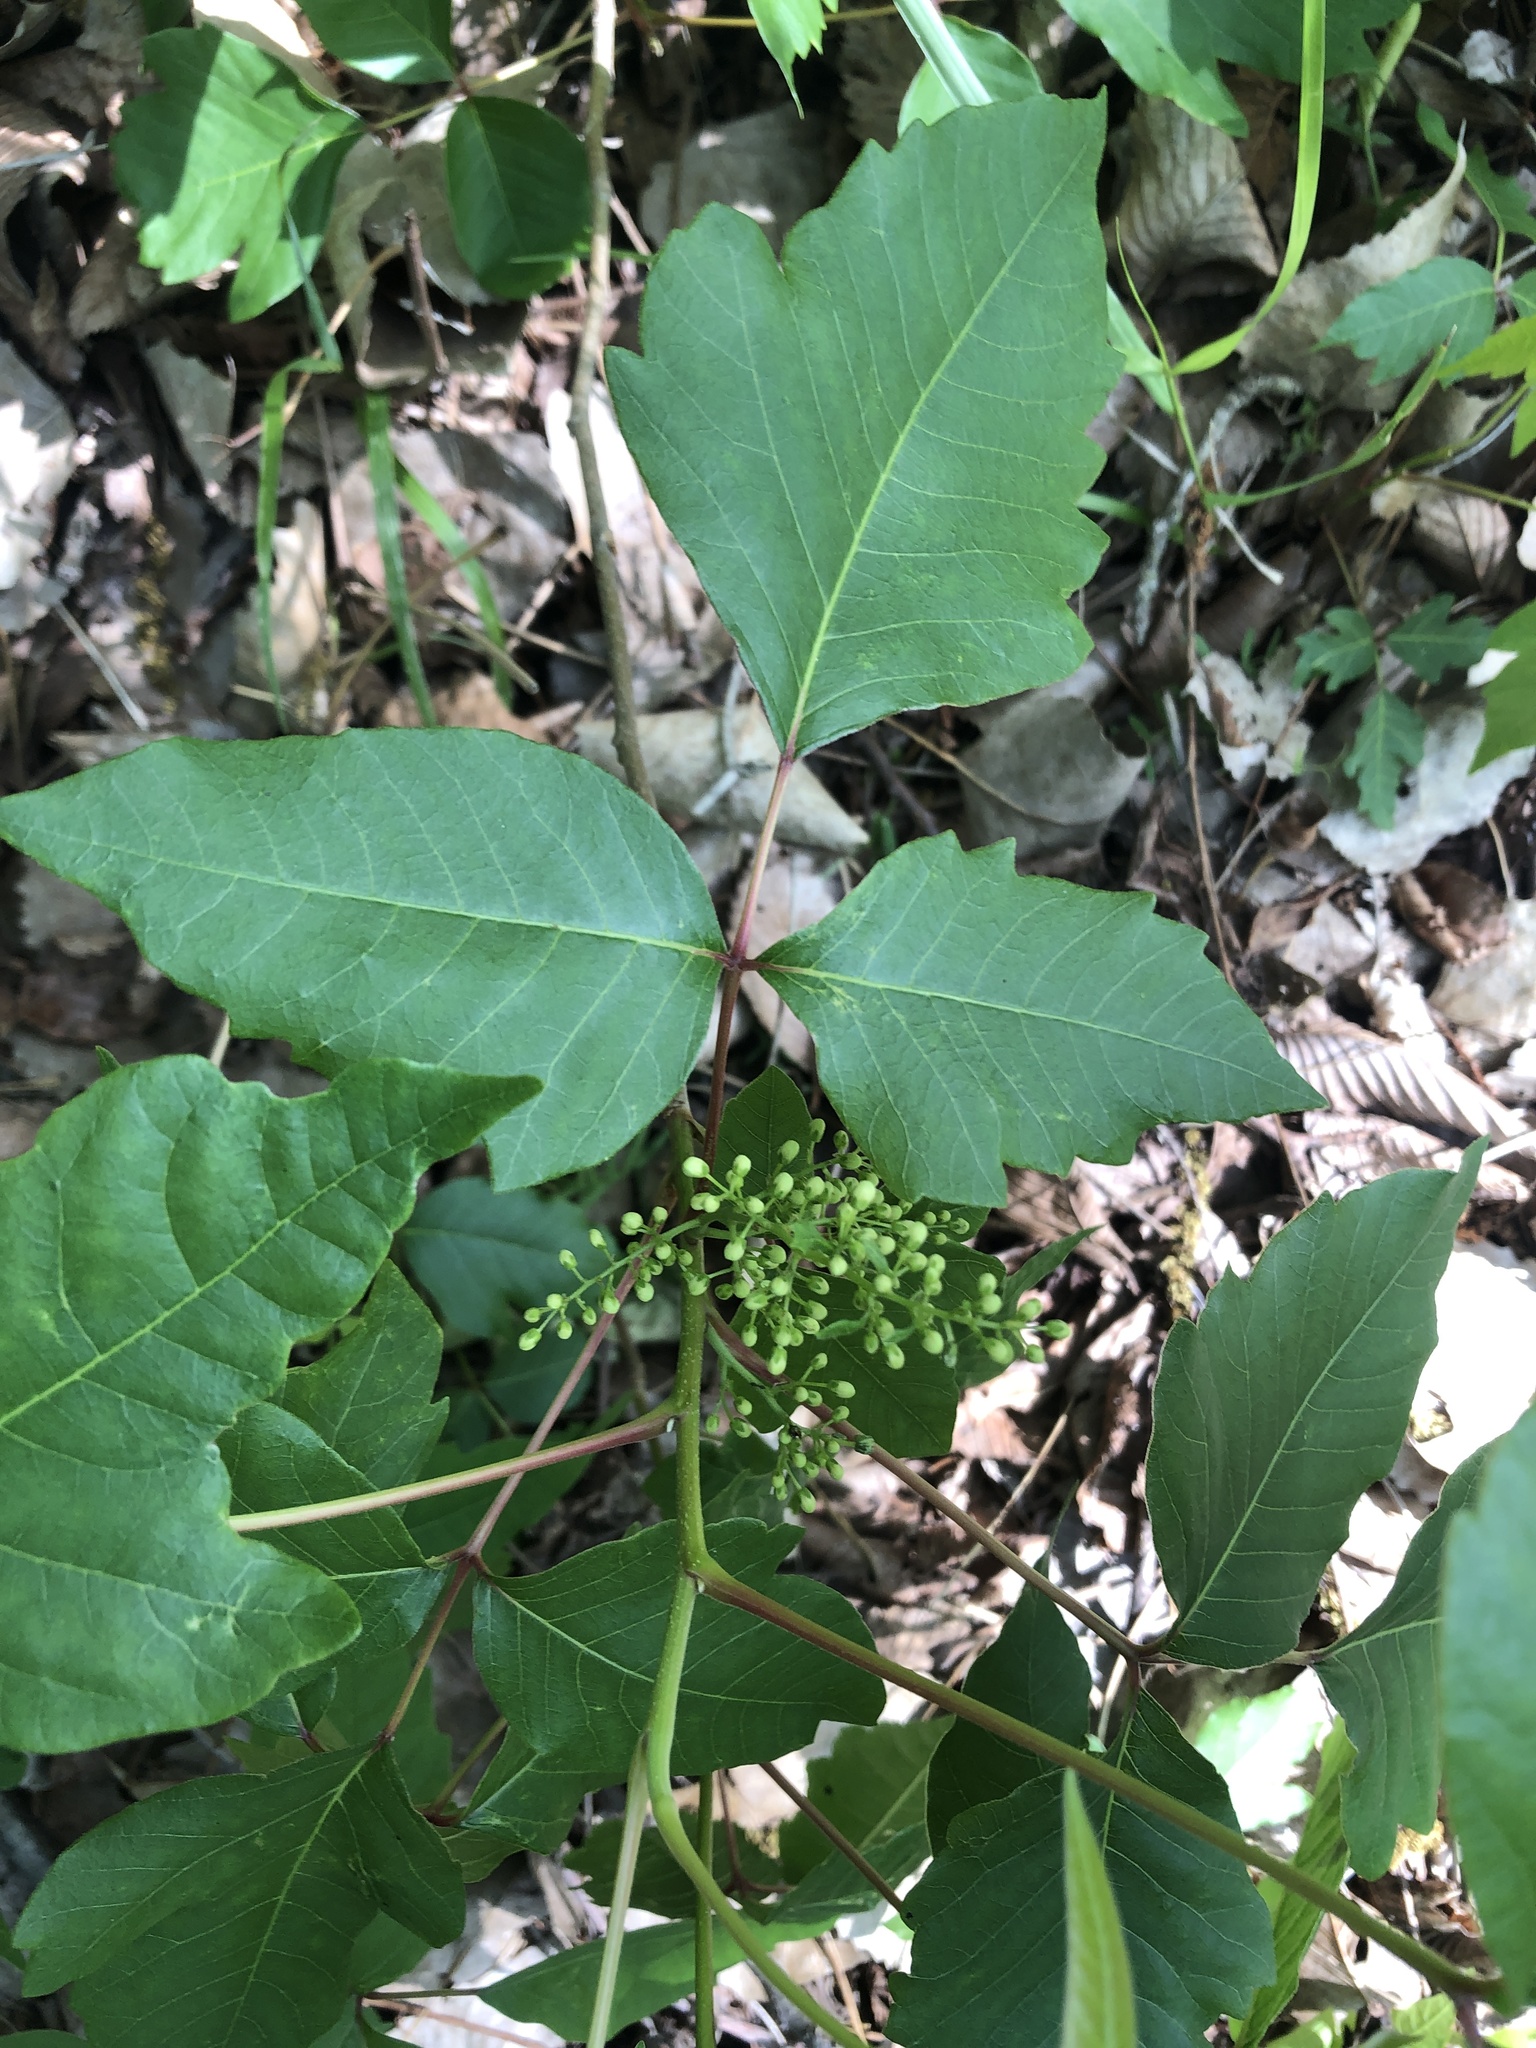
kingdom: Plantae
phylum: Tracheophyta
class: Magnoliopsida
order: Sapindales
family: Anacardiaceae
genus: Toxicodendron
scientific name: Toxicodendron radicans
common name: Poison ivy
